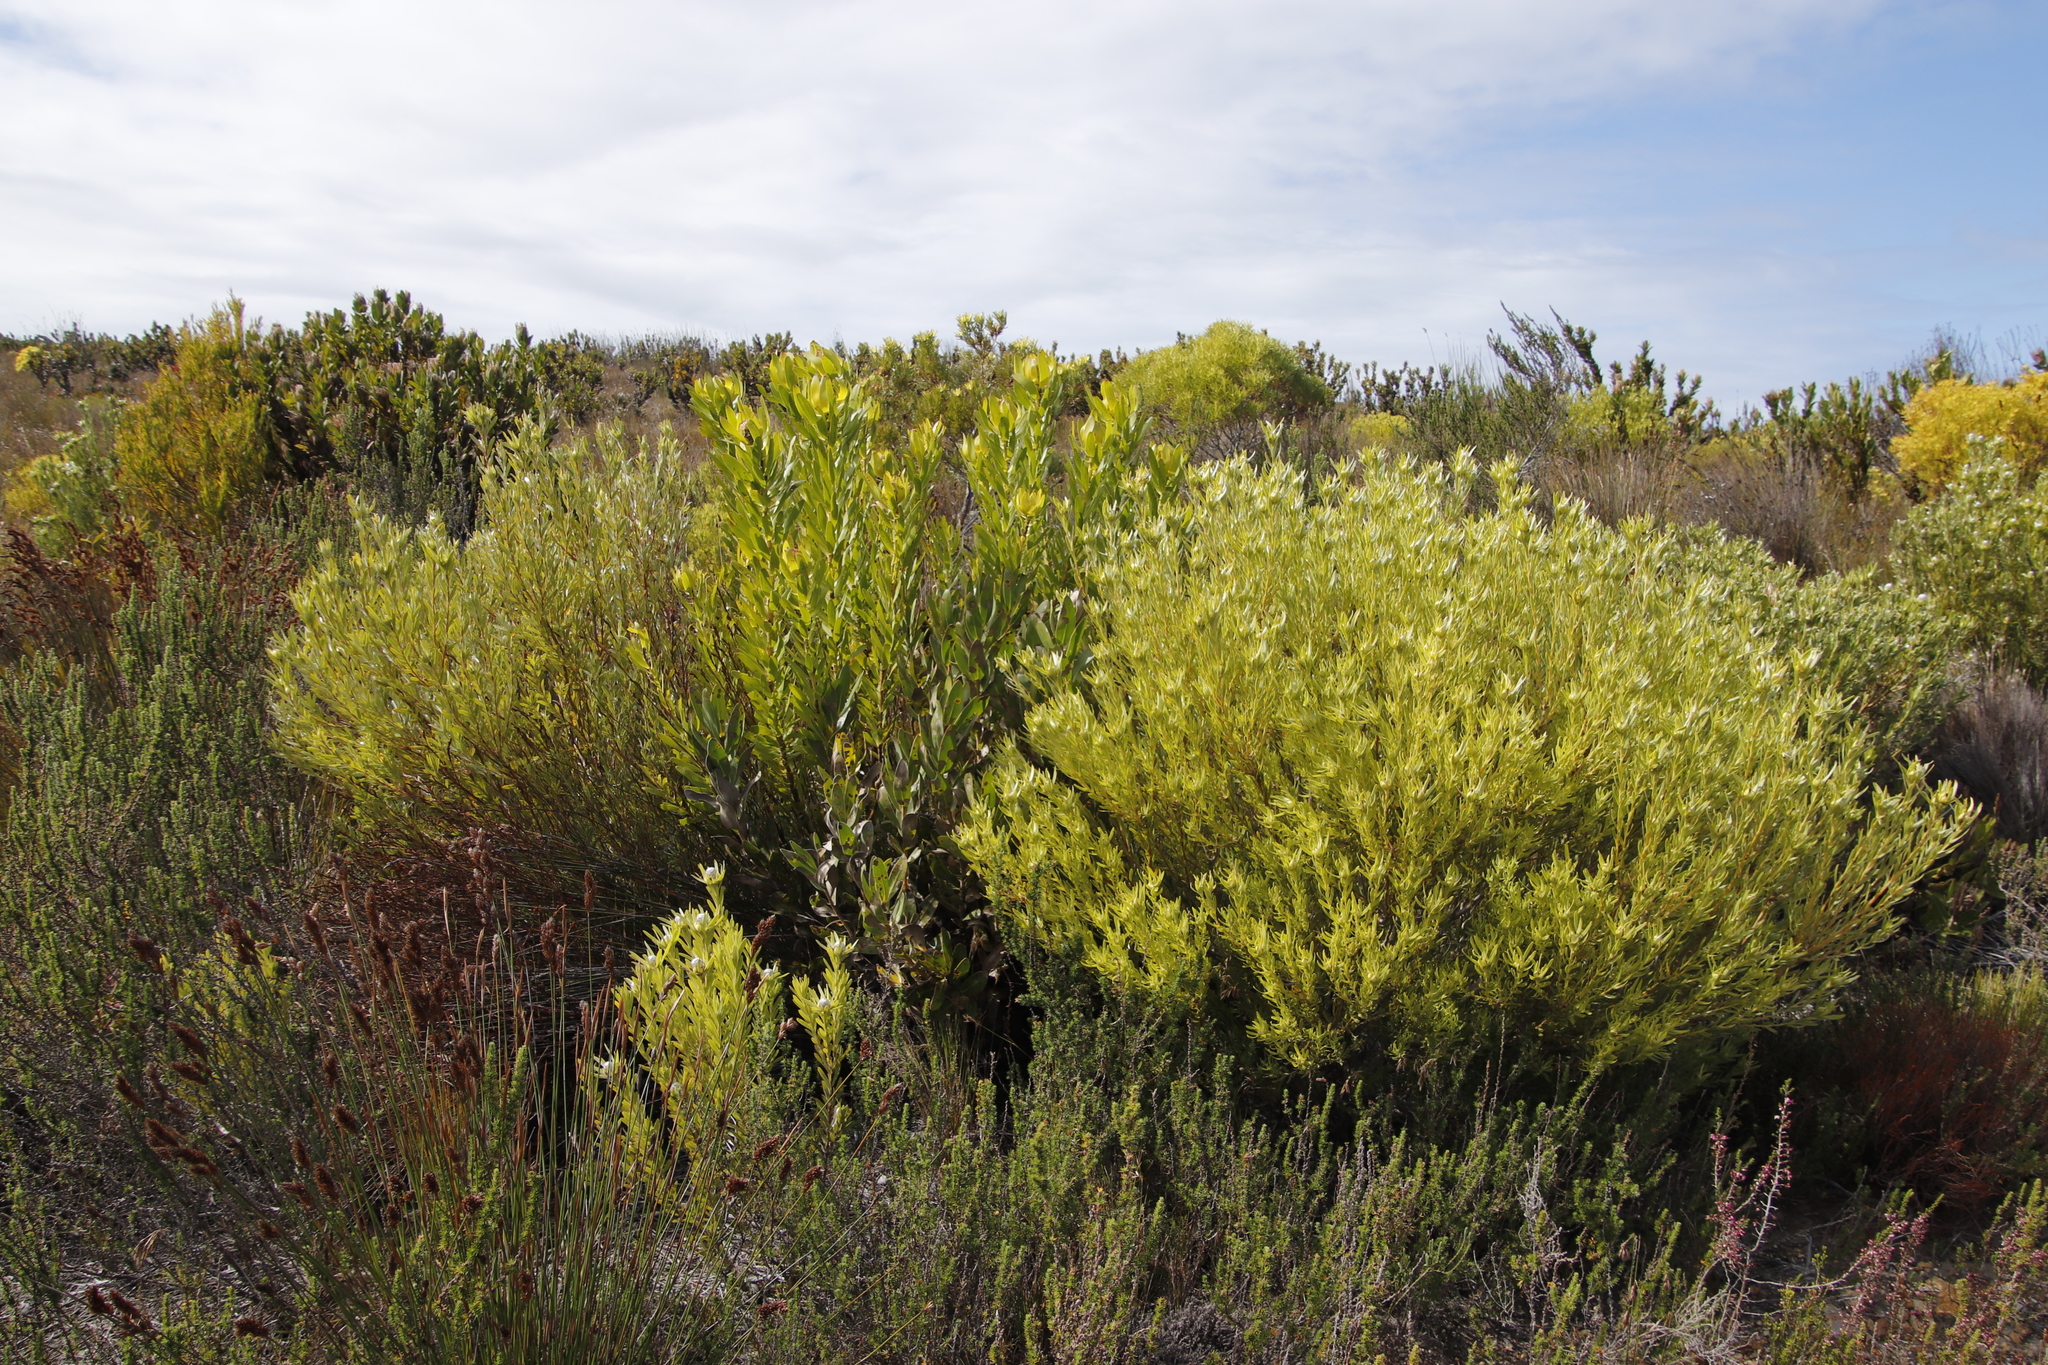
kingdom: Plantae
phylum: Tracheophyta
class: Magnoliopsida
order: Proteales
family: Proteaceae
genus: Leucadendron
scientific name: Leucadendron laureolum
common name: Golden sunshinebush
